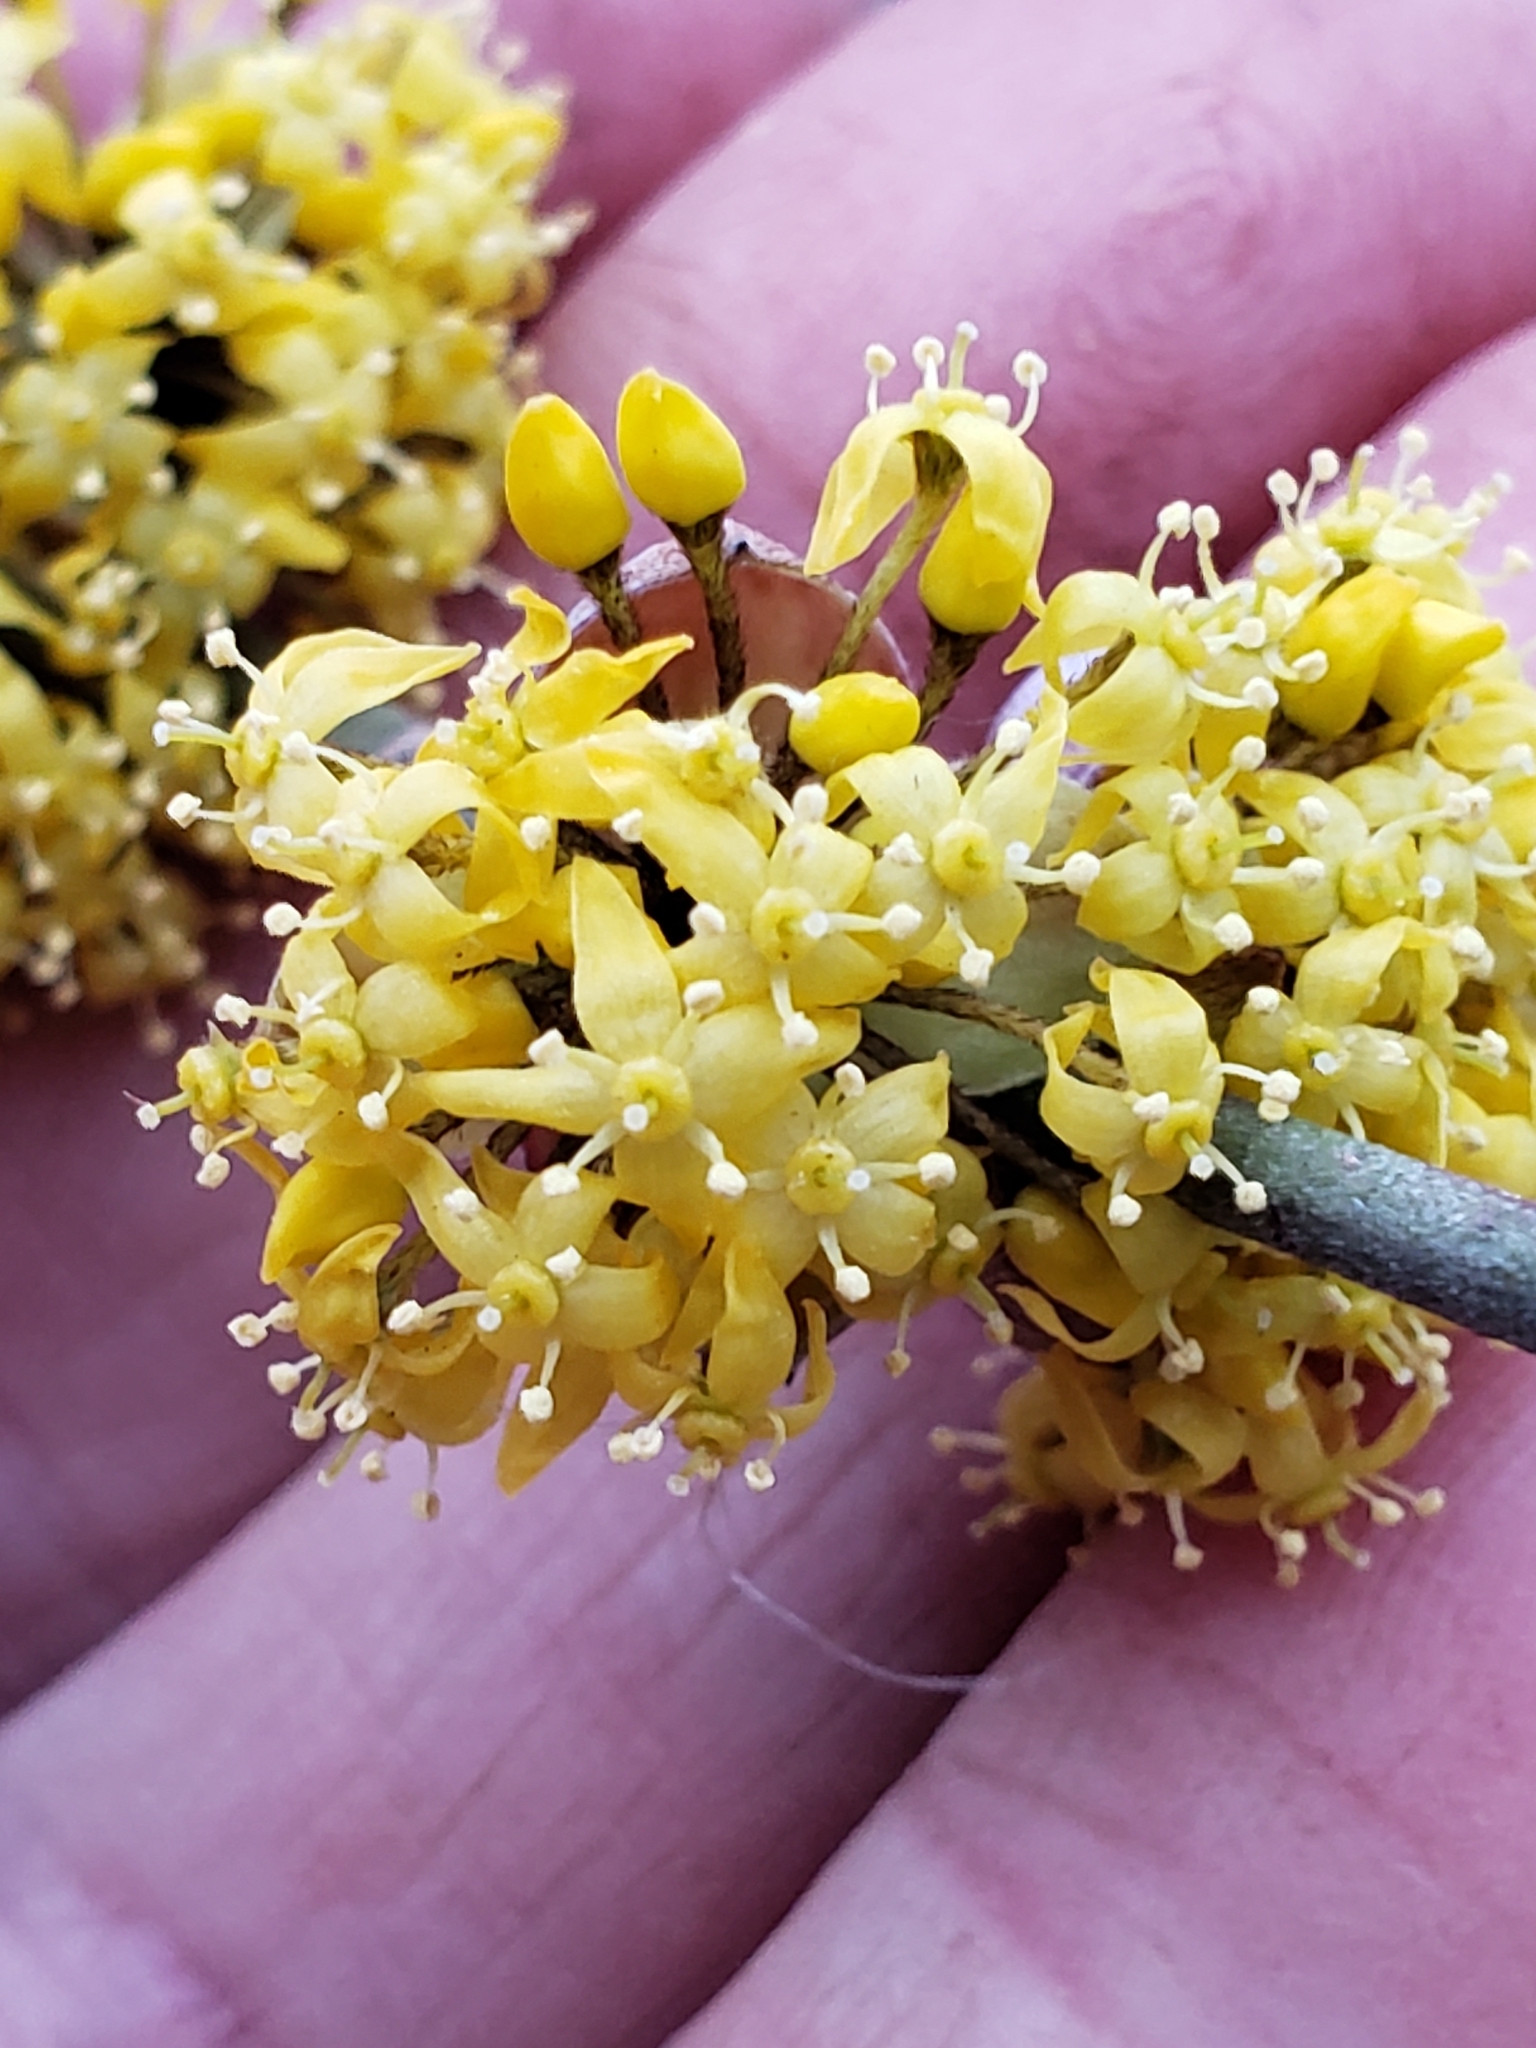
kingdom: Plantae
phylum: Tracheophyta
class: Magnoliopsida
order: Cornales
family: Cornaceae
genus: Cornus
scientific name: Cornus mas
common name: Cornelian-cherry
